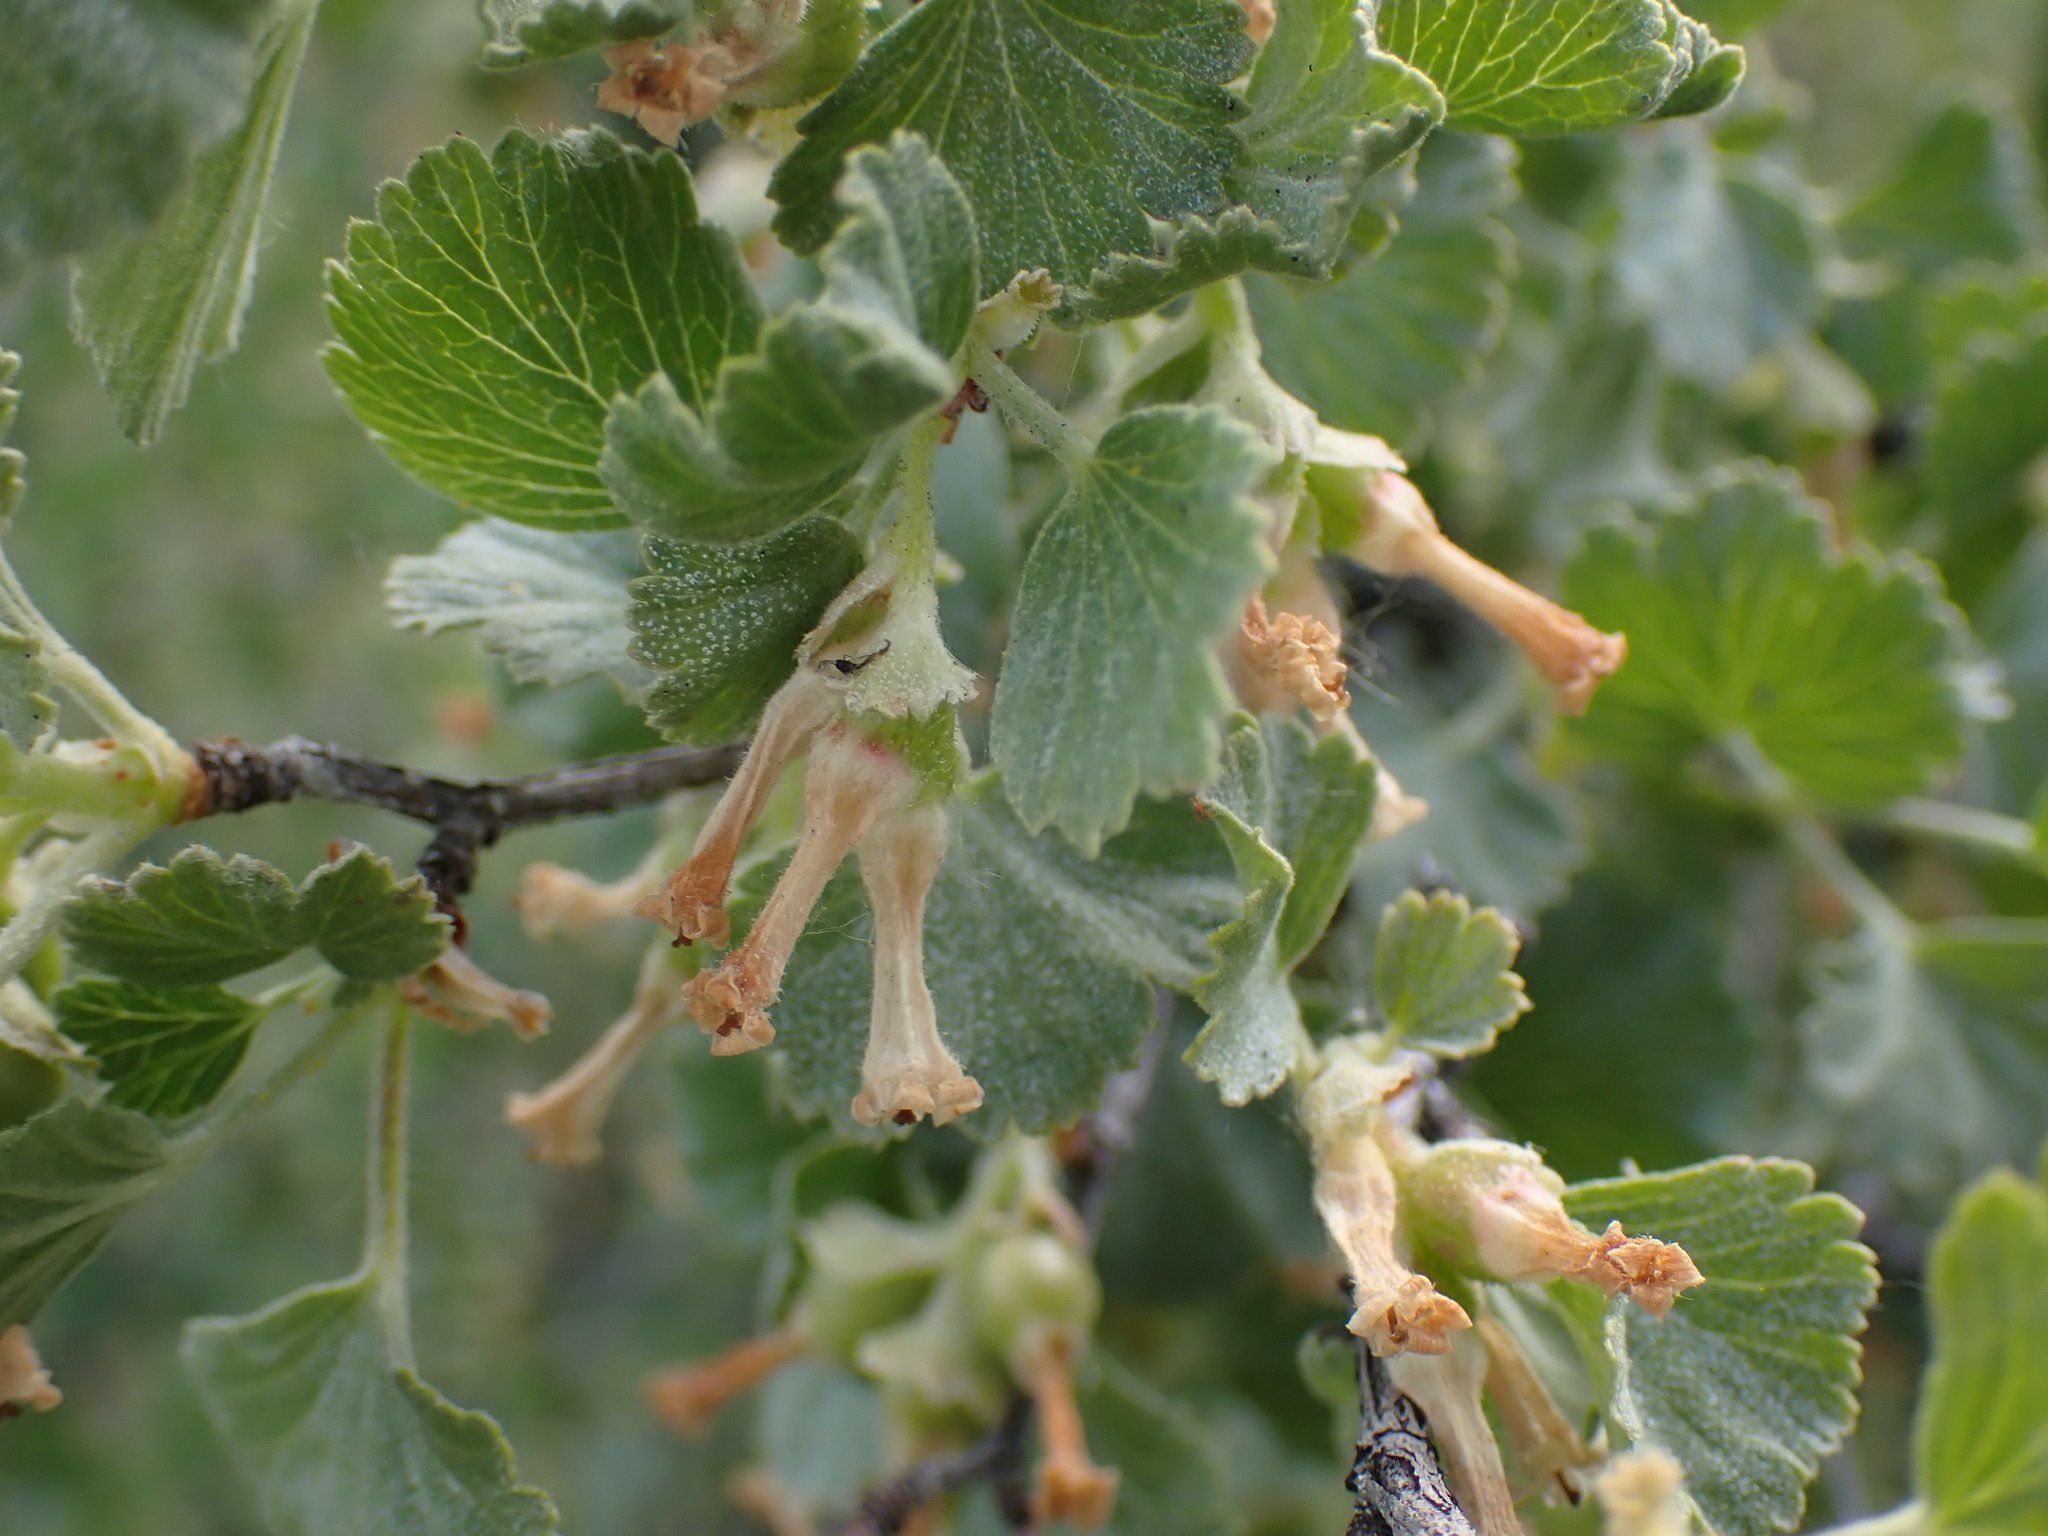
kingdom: Plantae
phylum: Tracheophyta
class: Magnoliopsida
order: Saxifragales
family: Grossulariaceae
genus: Ribes
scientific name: Ribes cereum
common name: Wax currant
